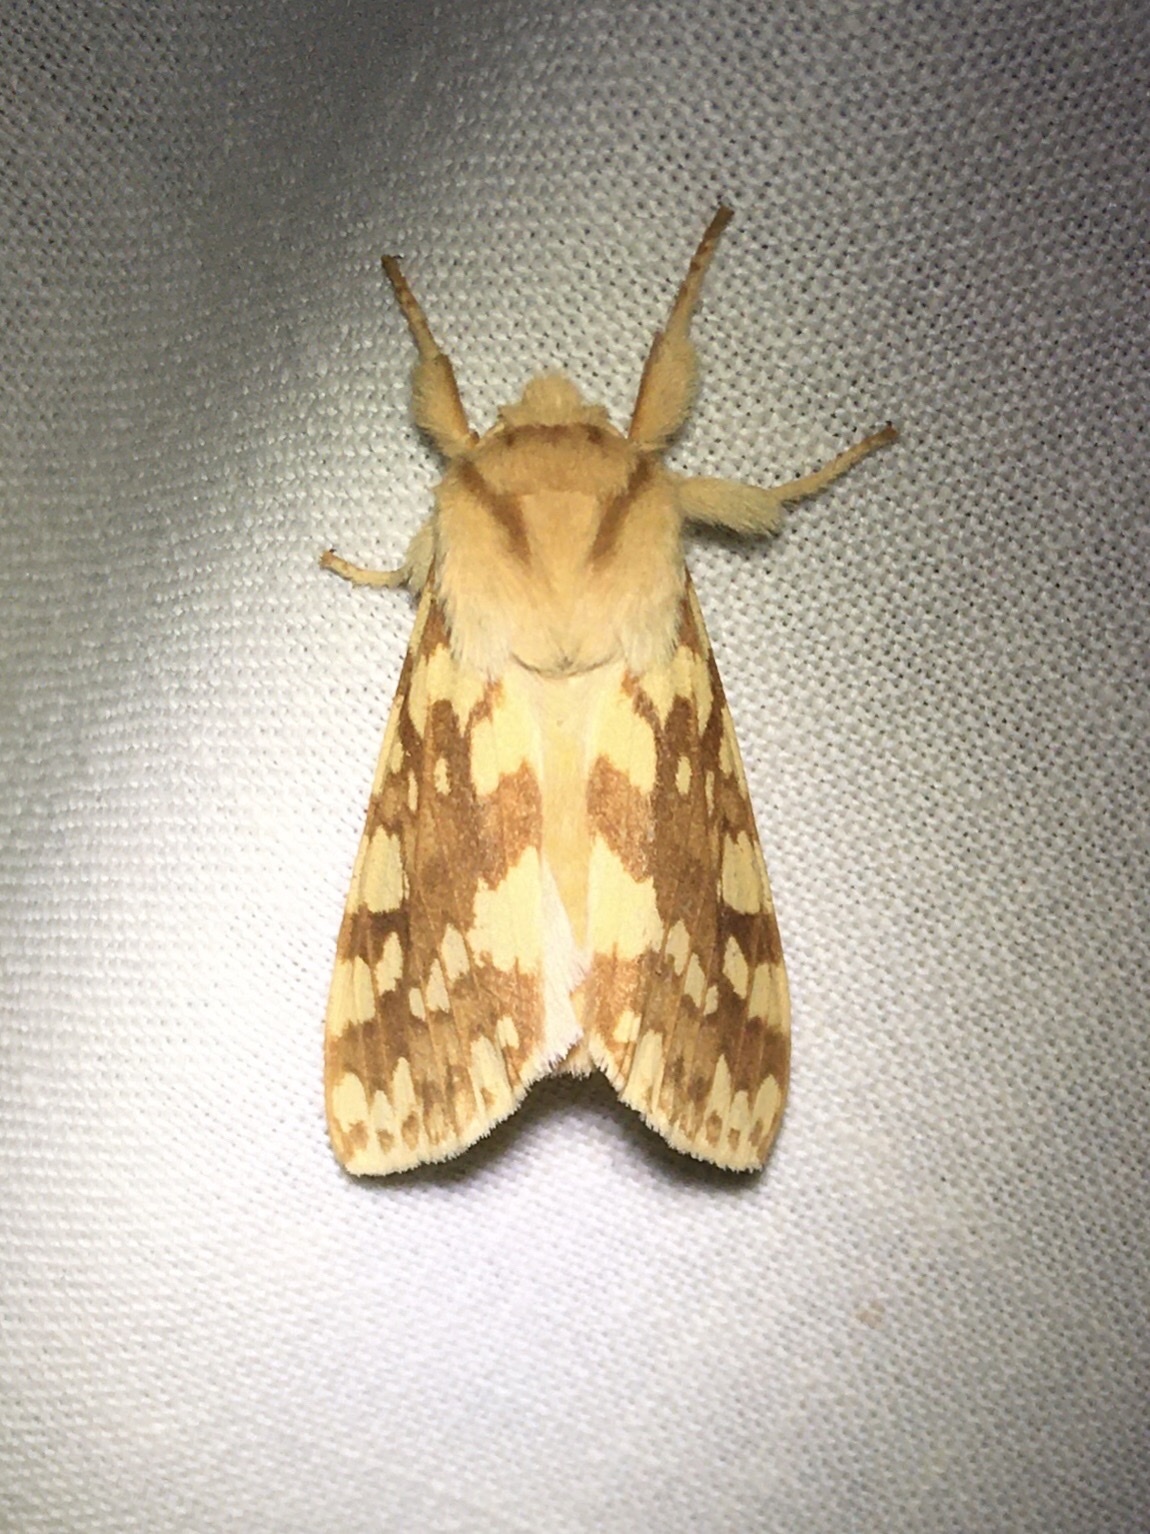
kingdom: Animalia
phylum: Arthropoda
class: Insecta
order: Lepidoptera
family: Erebidae
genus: Lophocampa
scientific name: Lophocampa maculata
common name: Spotted tussock moth
